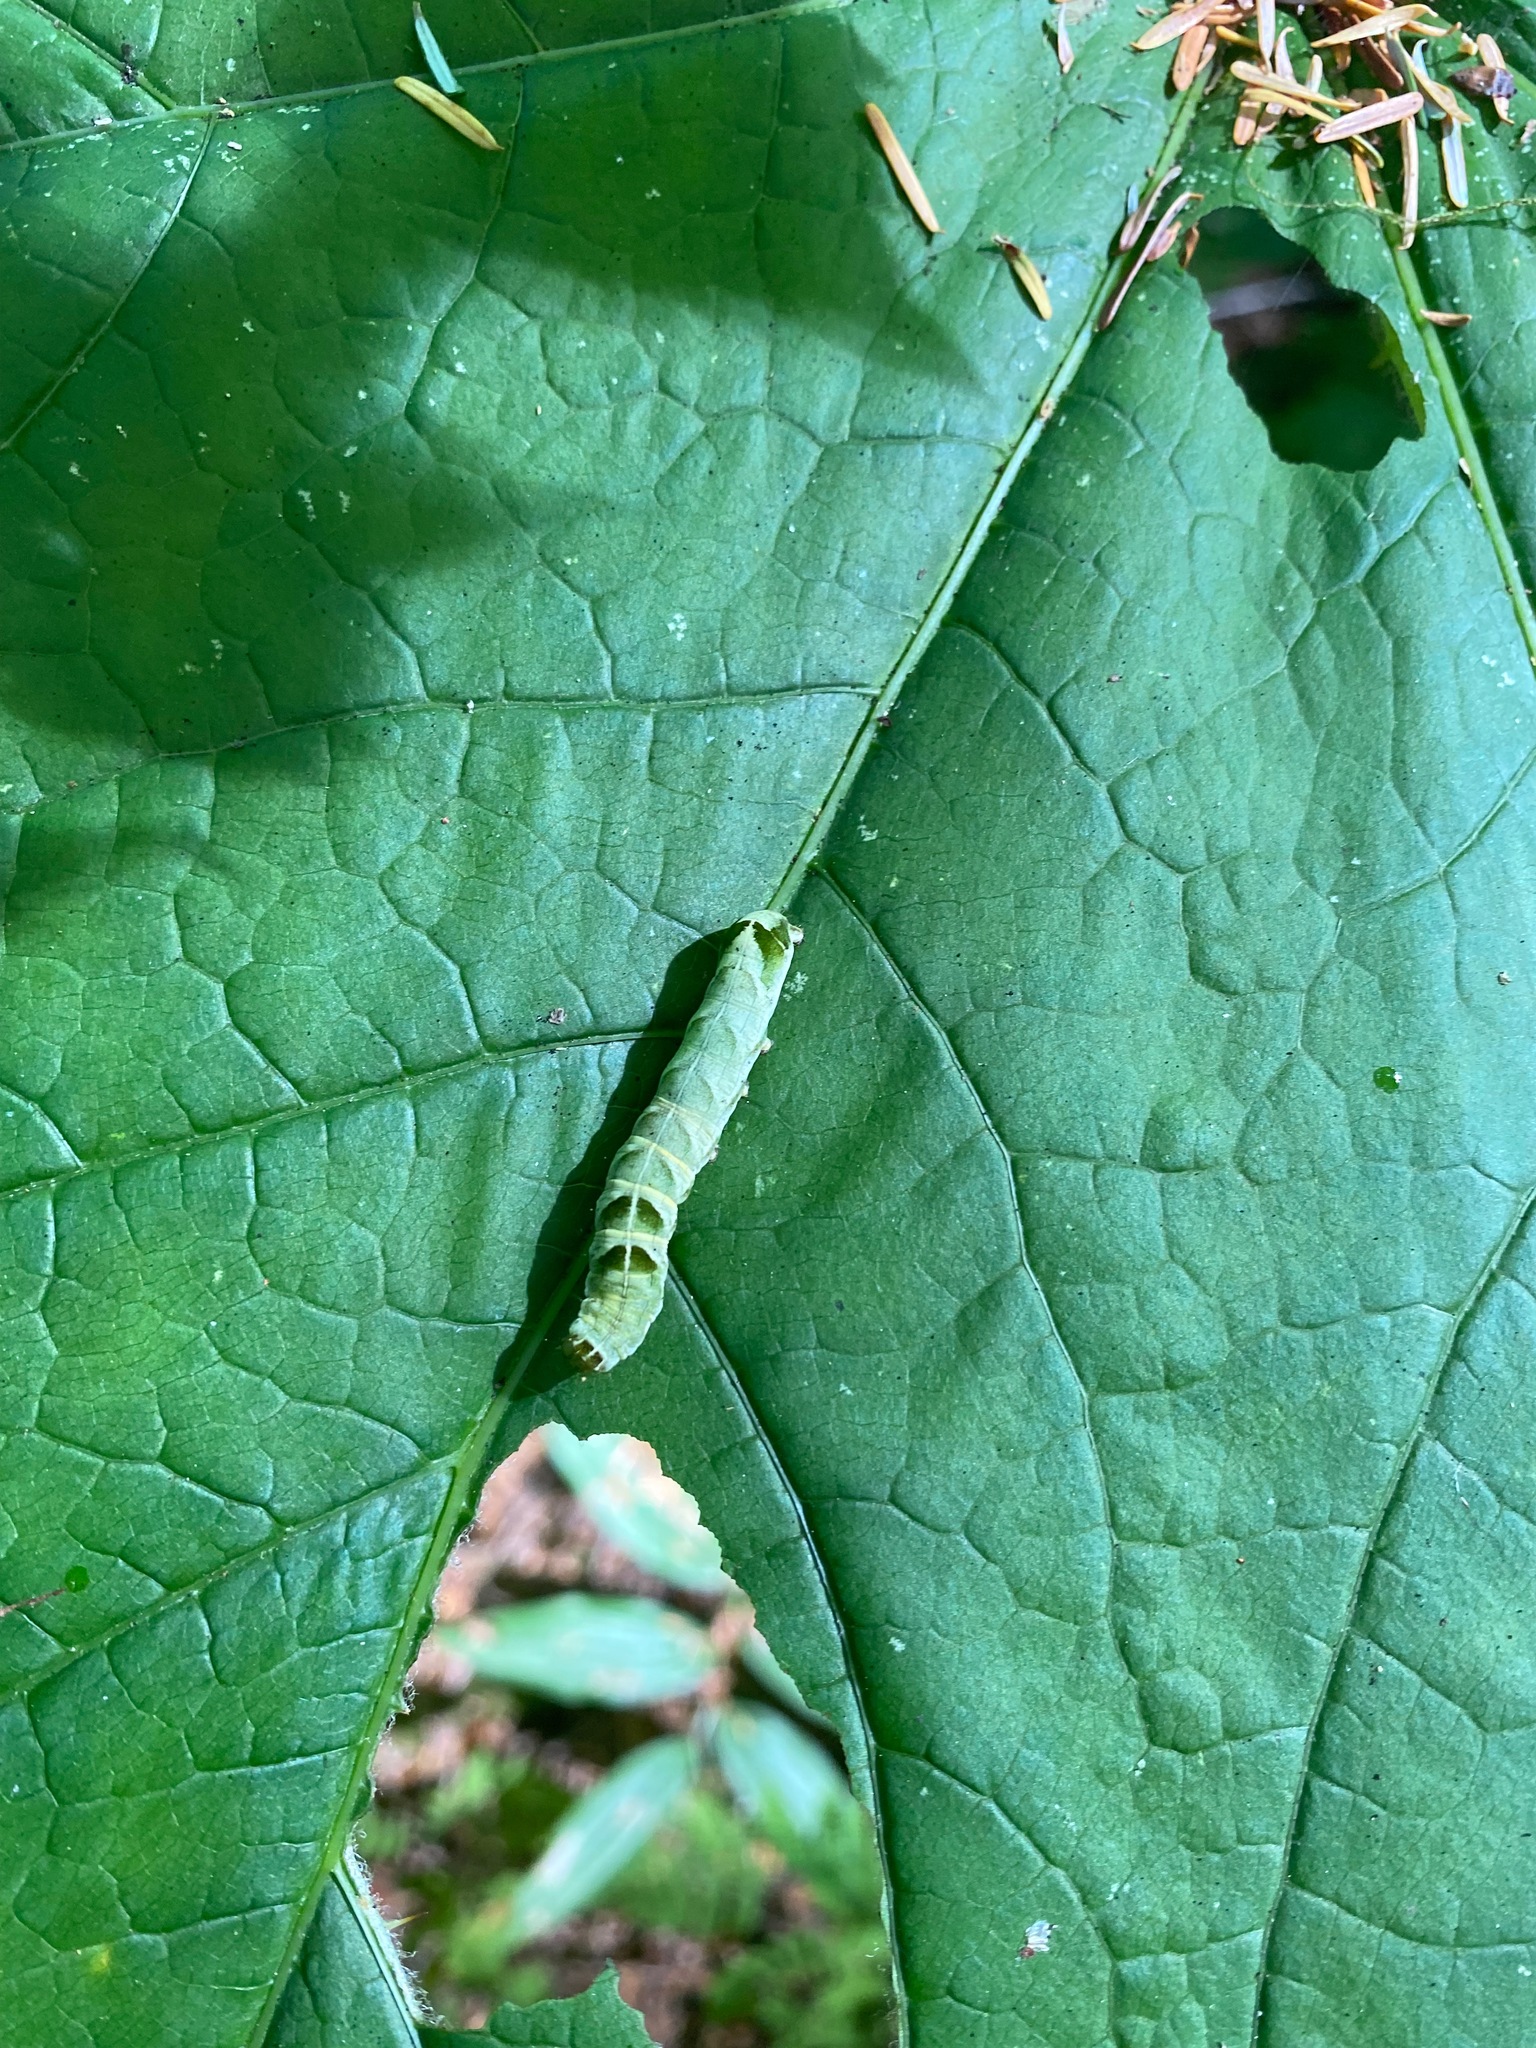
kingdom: Animalia
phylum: Arthropoda
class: Insecta
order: Lepidoptera
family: Noctuidae
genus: Melanchra
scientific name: Melanchra adjuncta
